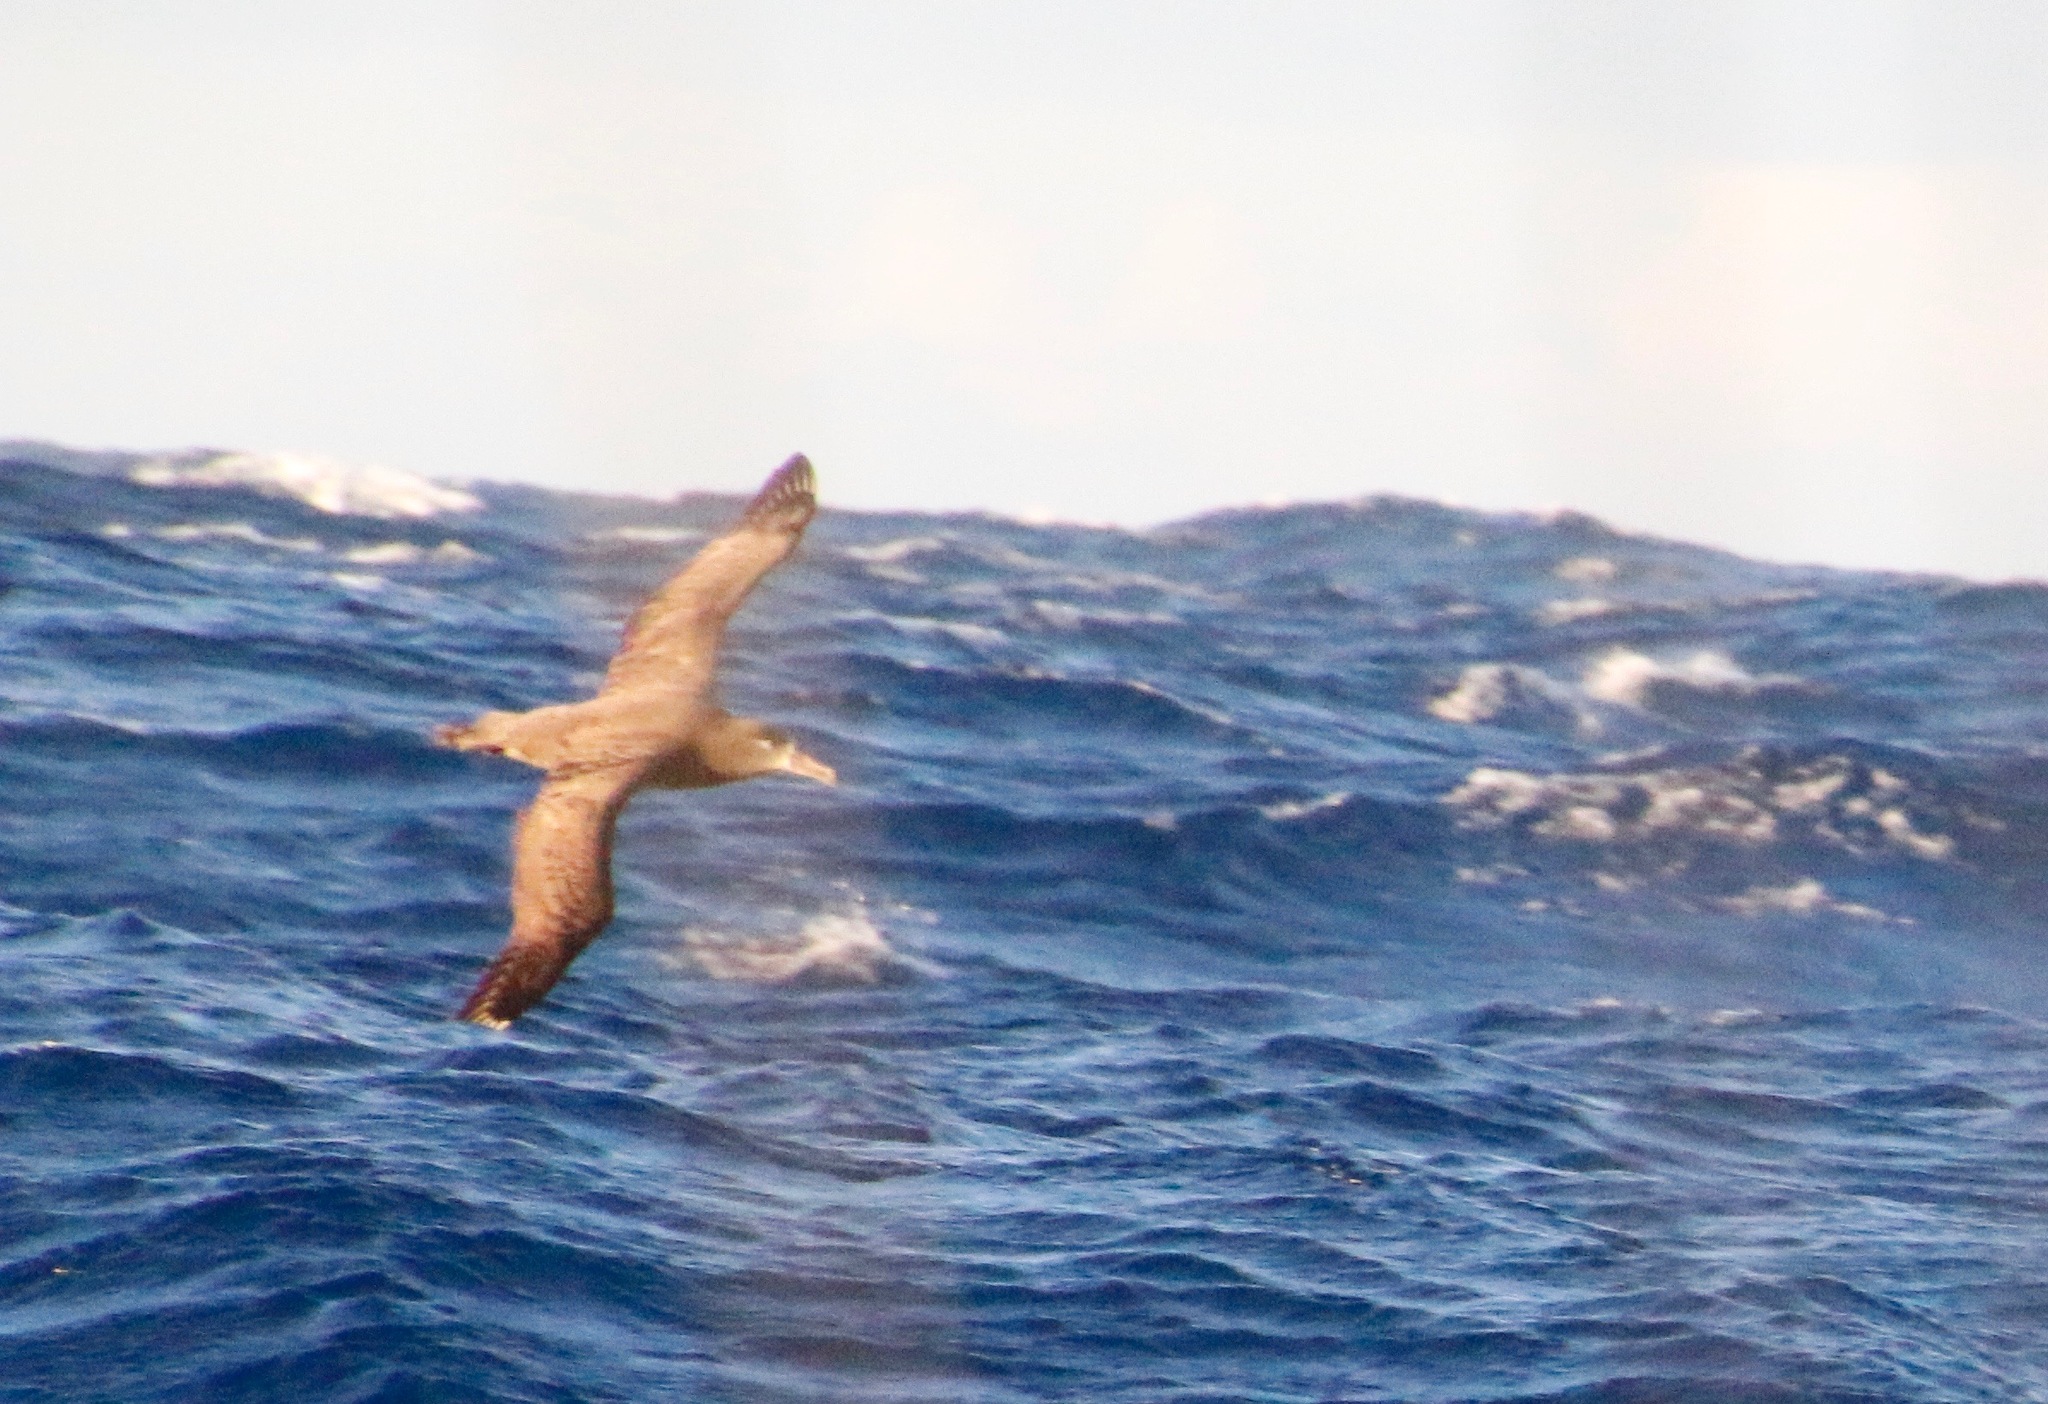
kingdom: Animalia
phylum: Chordata
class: Aves
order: Procellariiformes
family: Diomedeidae
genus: Phoebastria
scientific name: Phoebastria nigripes
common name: Black-footed albatross
